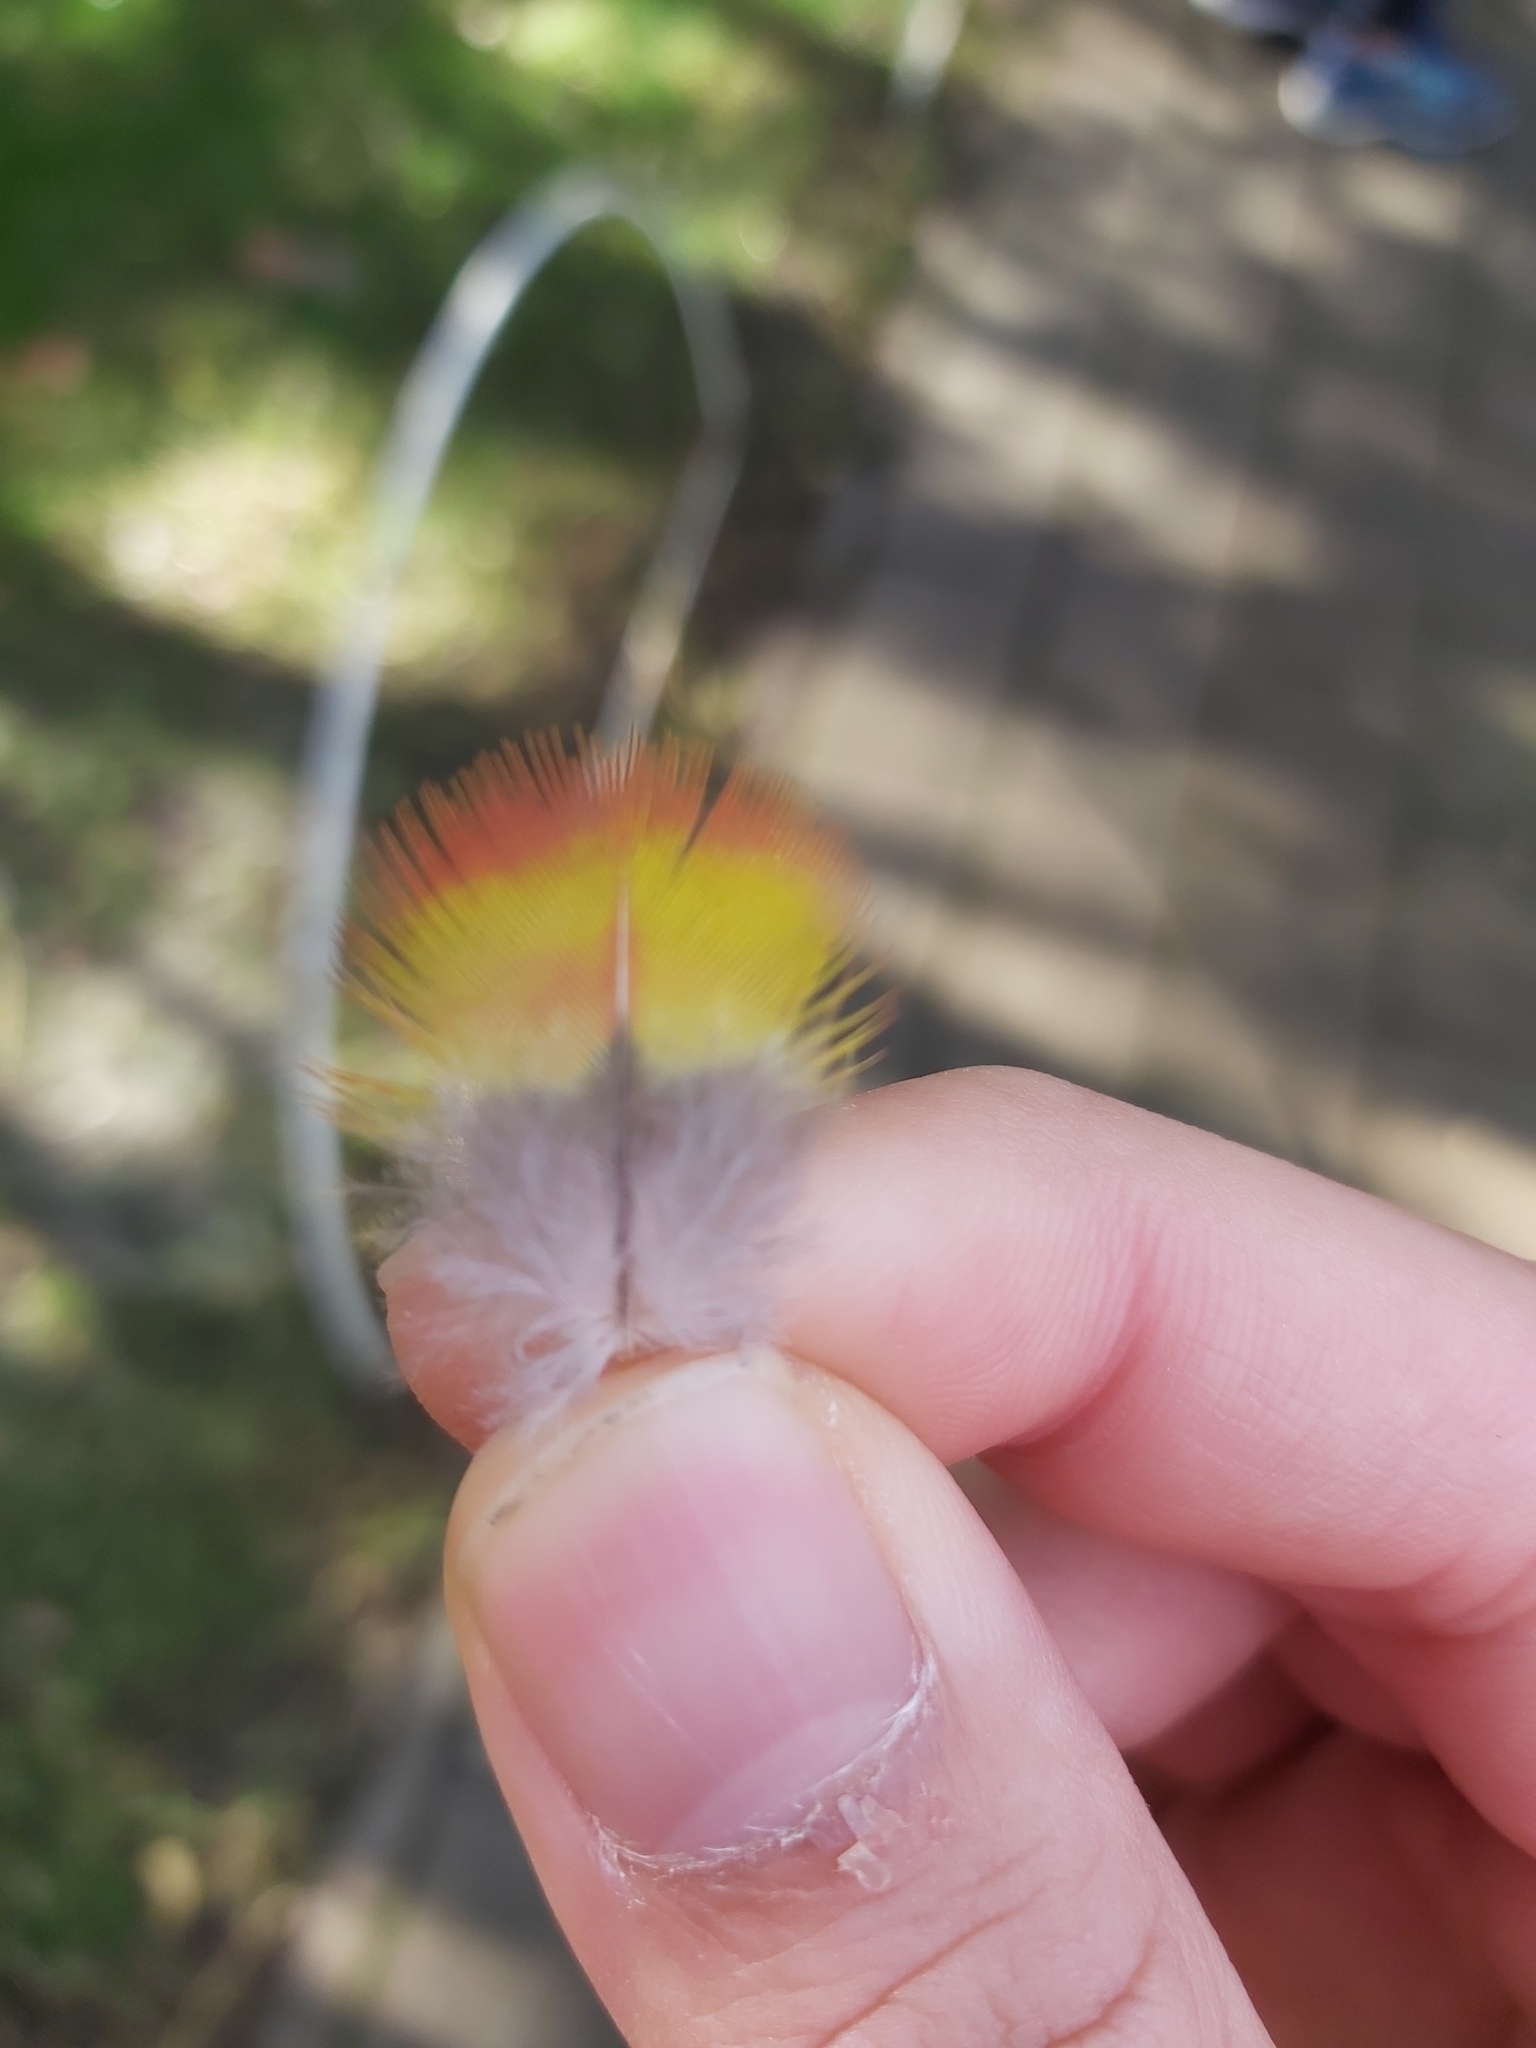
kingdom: Animalia
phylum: Chordata
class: Aves
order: Psittaciformes
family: Psittacidae
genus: Trichoglossus
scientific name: Trichoglossus haematodus
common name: Coconut lorikeet
